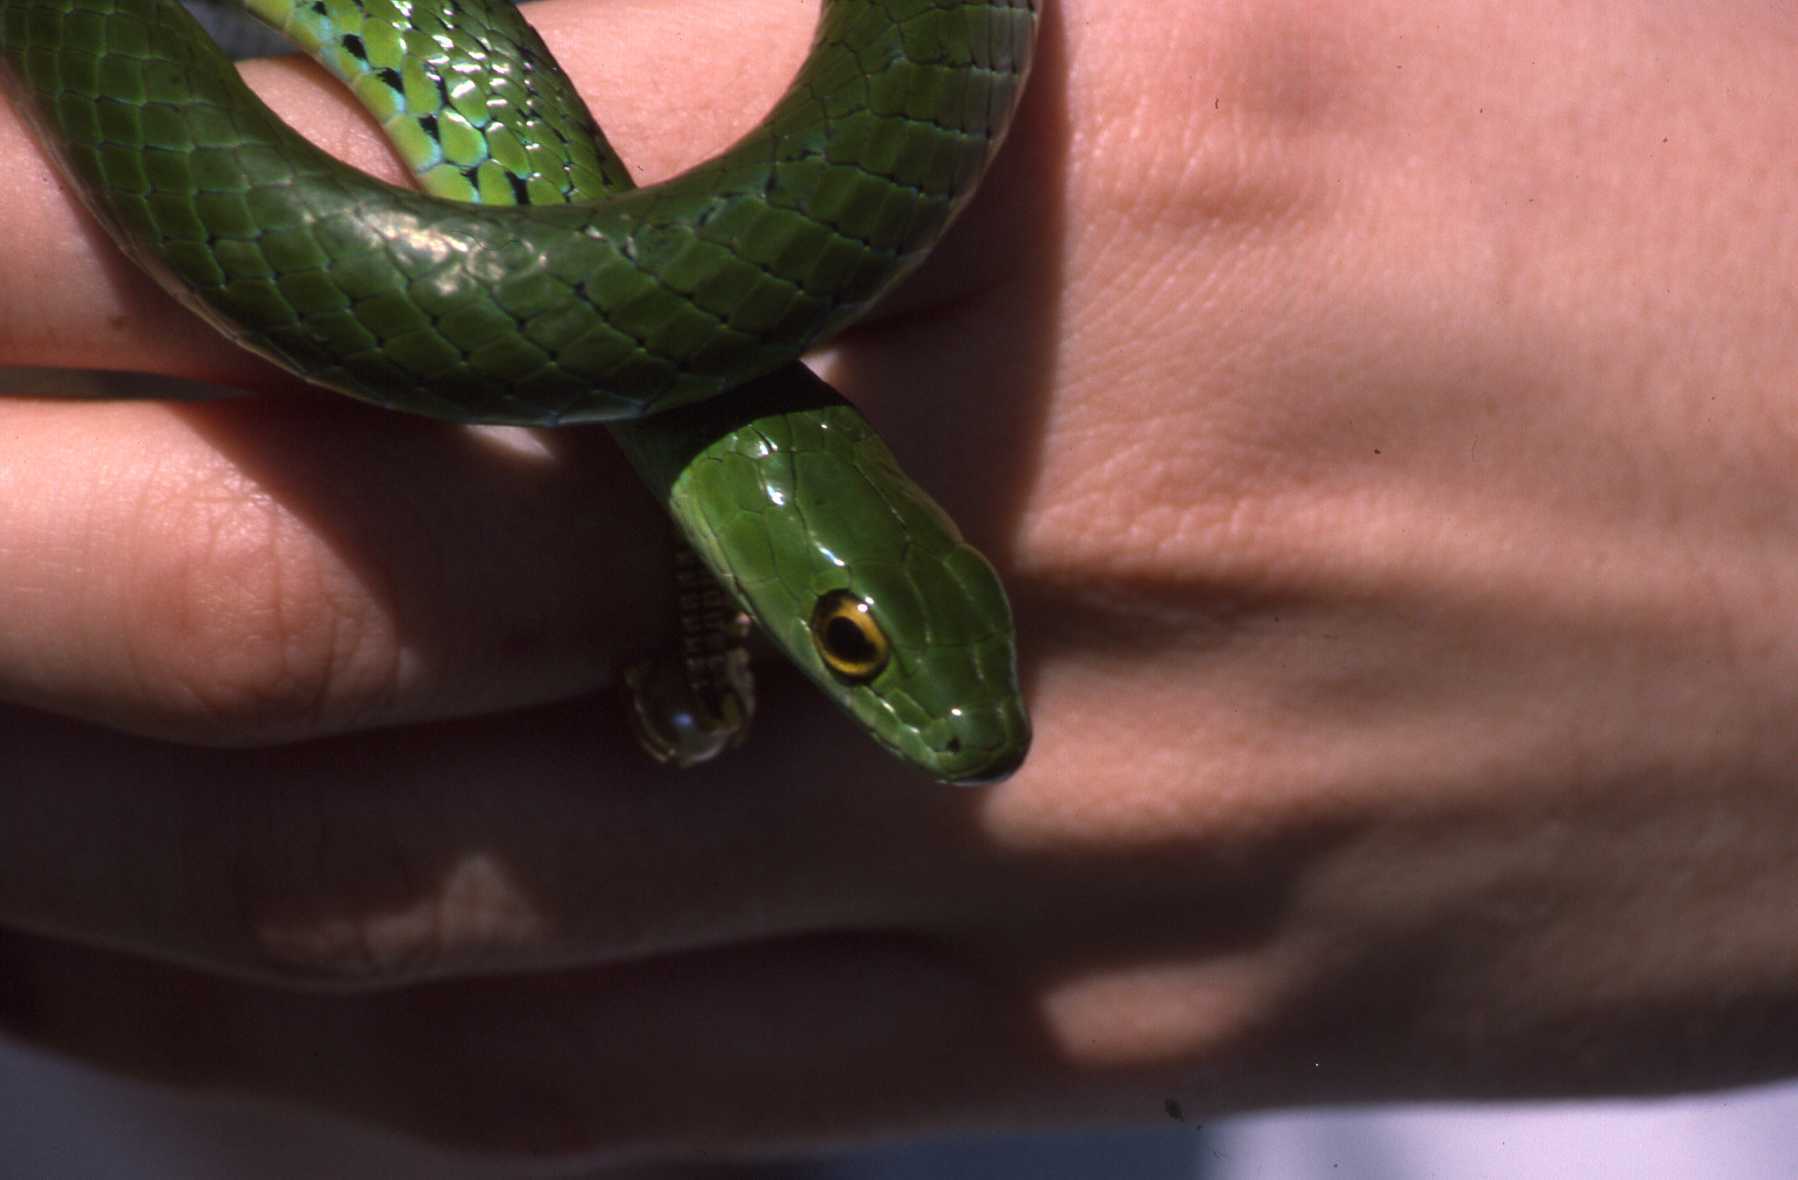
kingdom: Animalia
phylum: Chordata
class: Squamata
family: Colubridae
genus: Philothamnus
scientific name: Philothamnus angolensis
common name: Angola green snake
